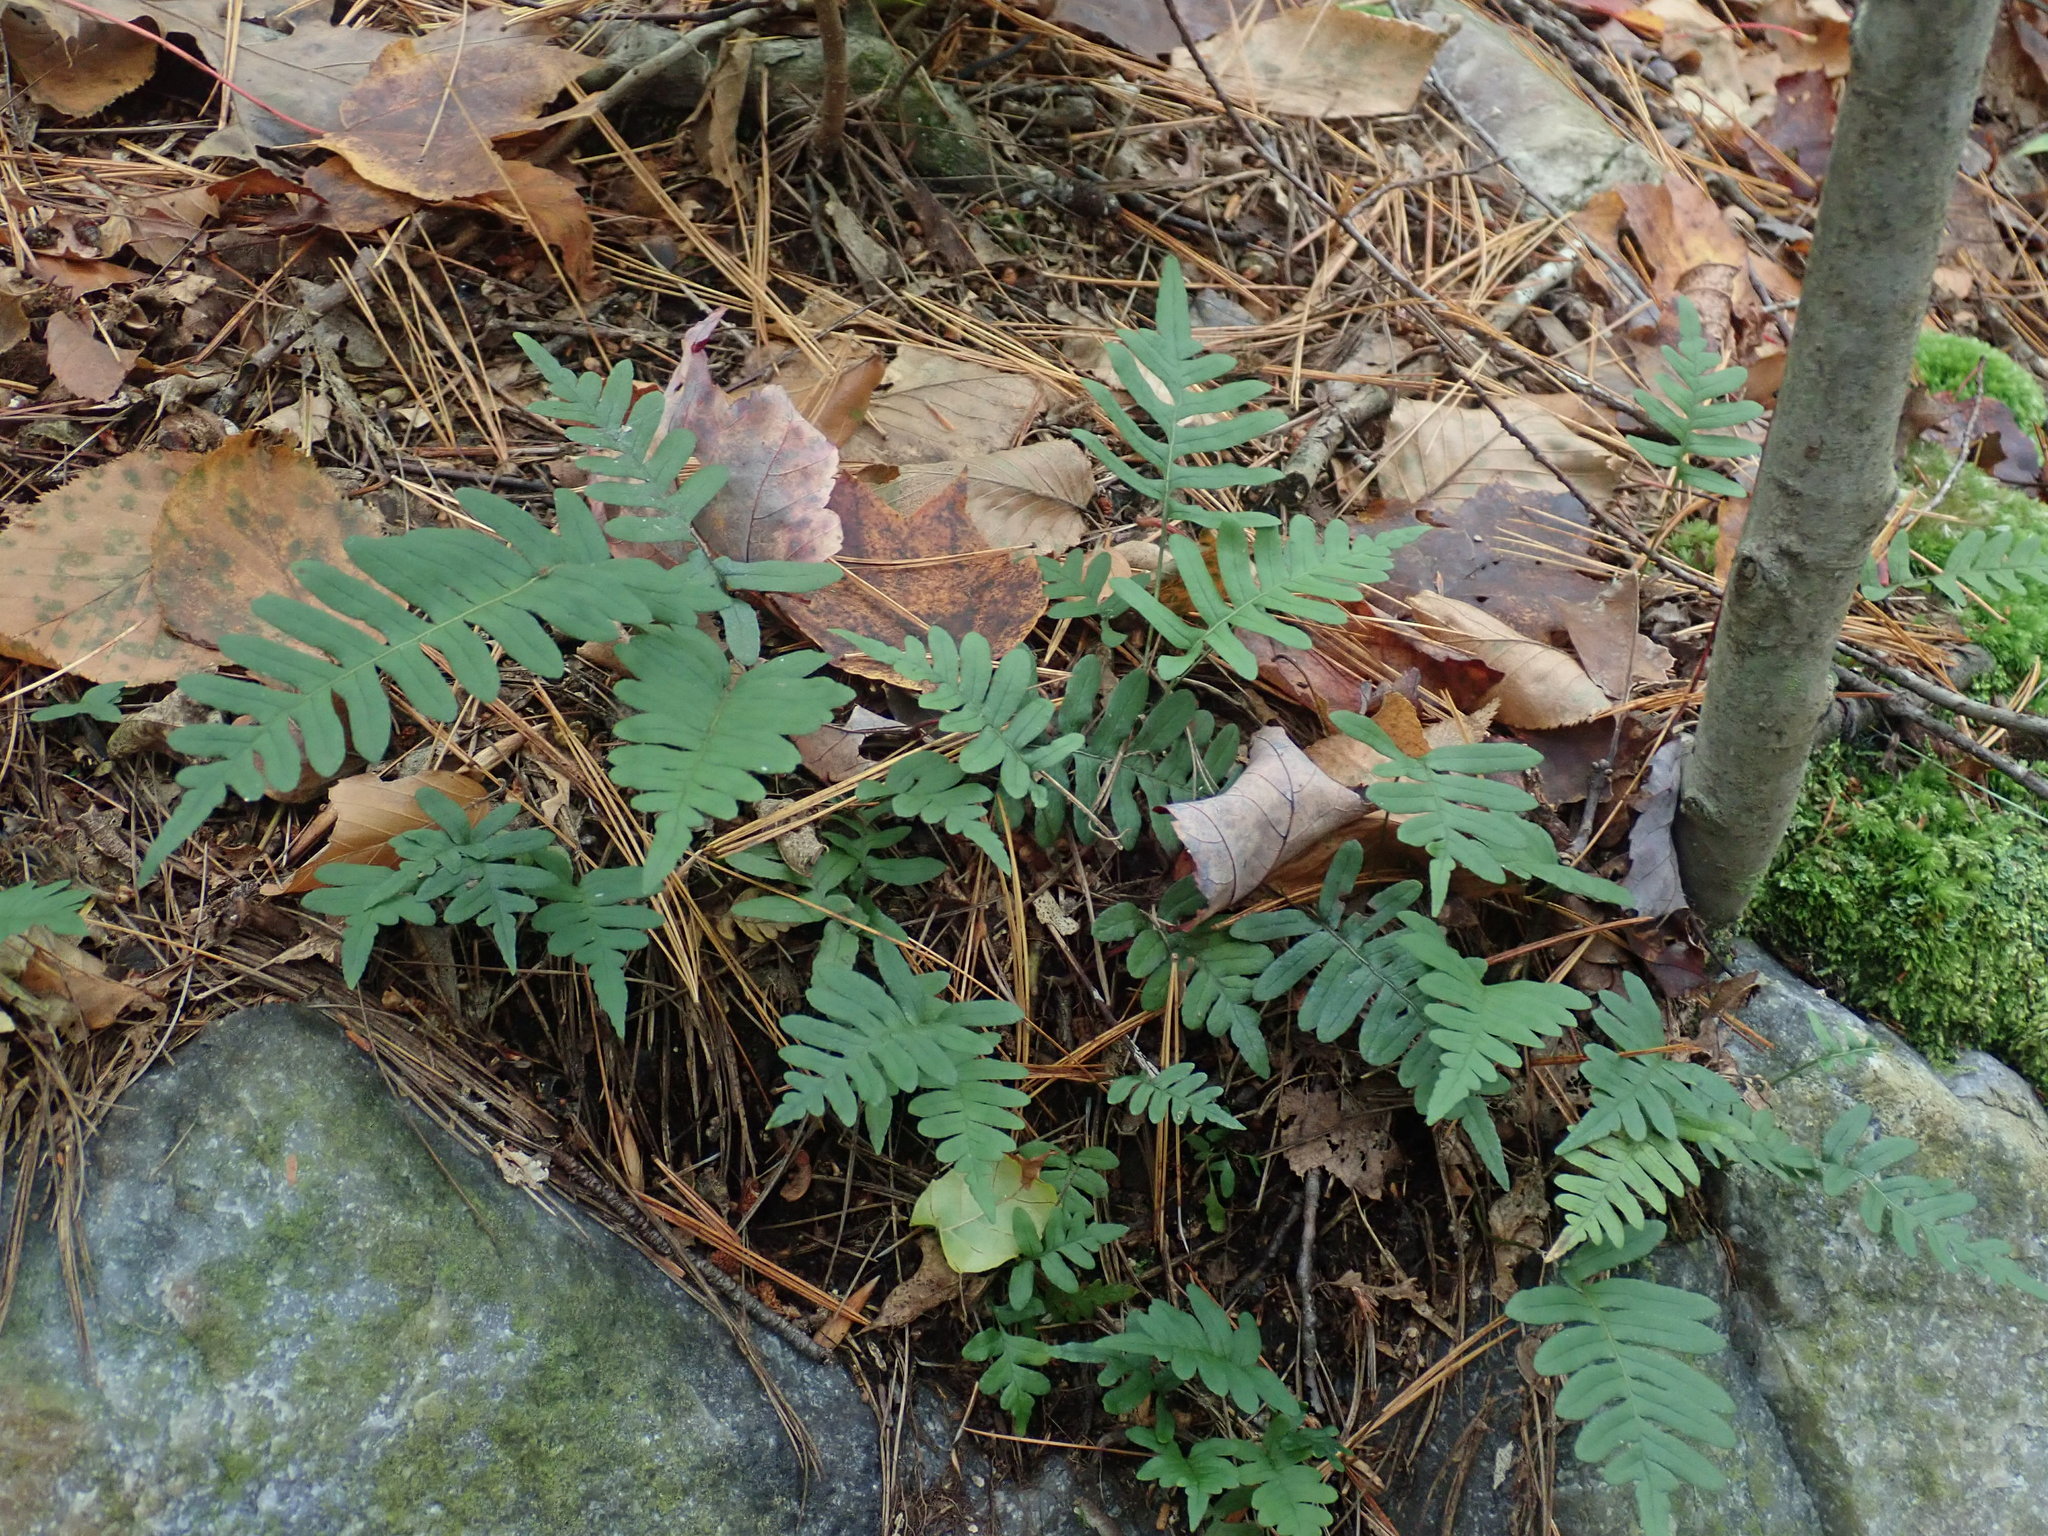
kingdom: Plantae
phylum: Tracheophyta
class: Polypodiopsida
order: Polypodiales
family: Polypodiaceae
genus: Polypodium
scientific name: Polypodium
